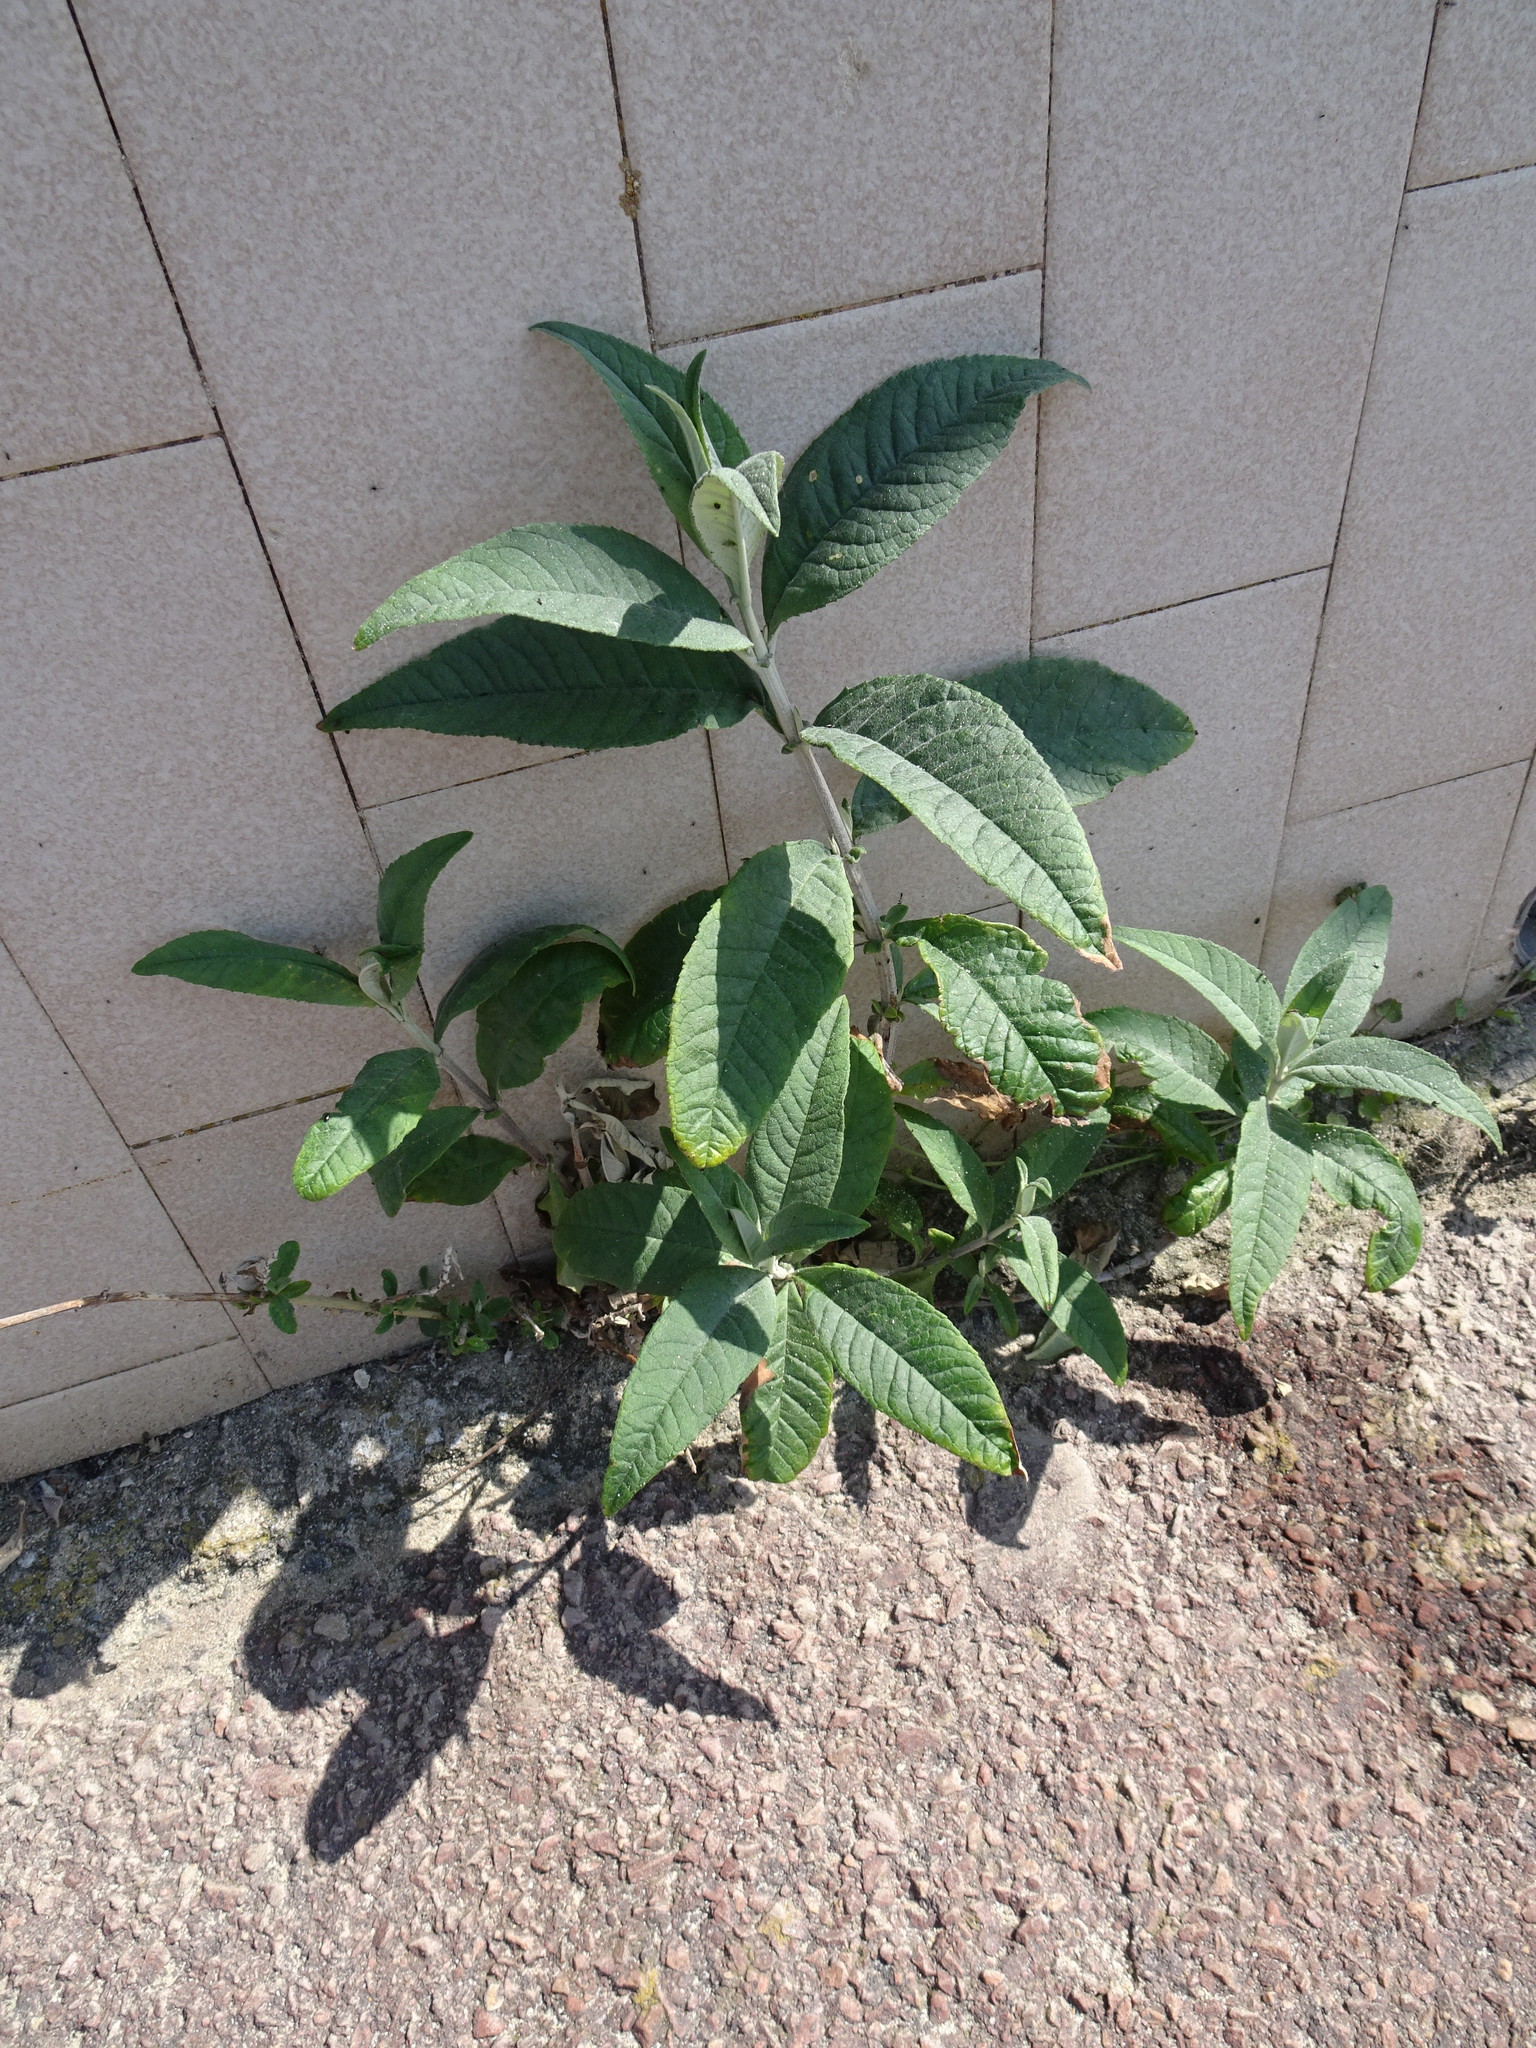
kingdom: Plantae
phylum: Tracheophyta
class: Magnoliopsida
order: Lamiales
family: Scrophulariaceae
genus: Buddleja
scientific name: Buddleja davidii
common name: Butterfly-bush
